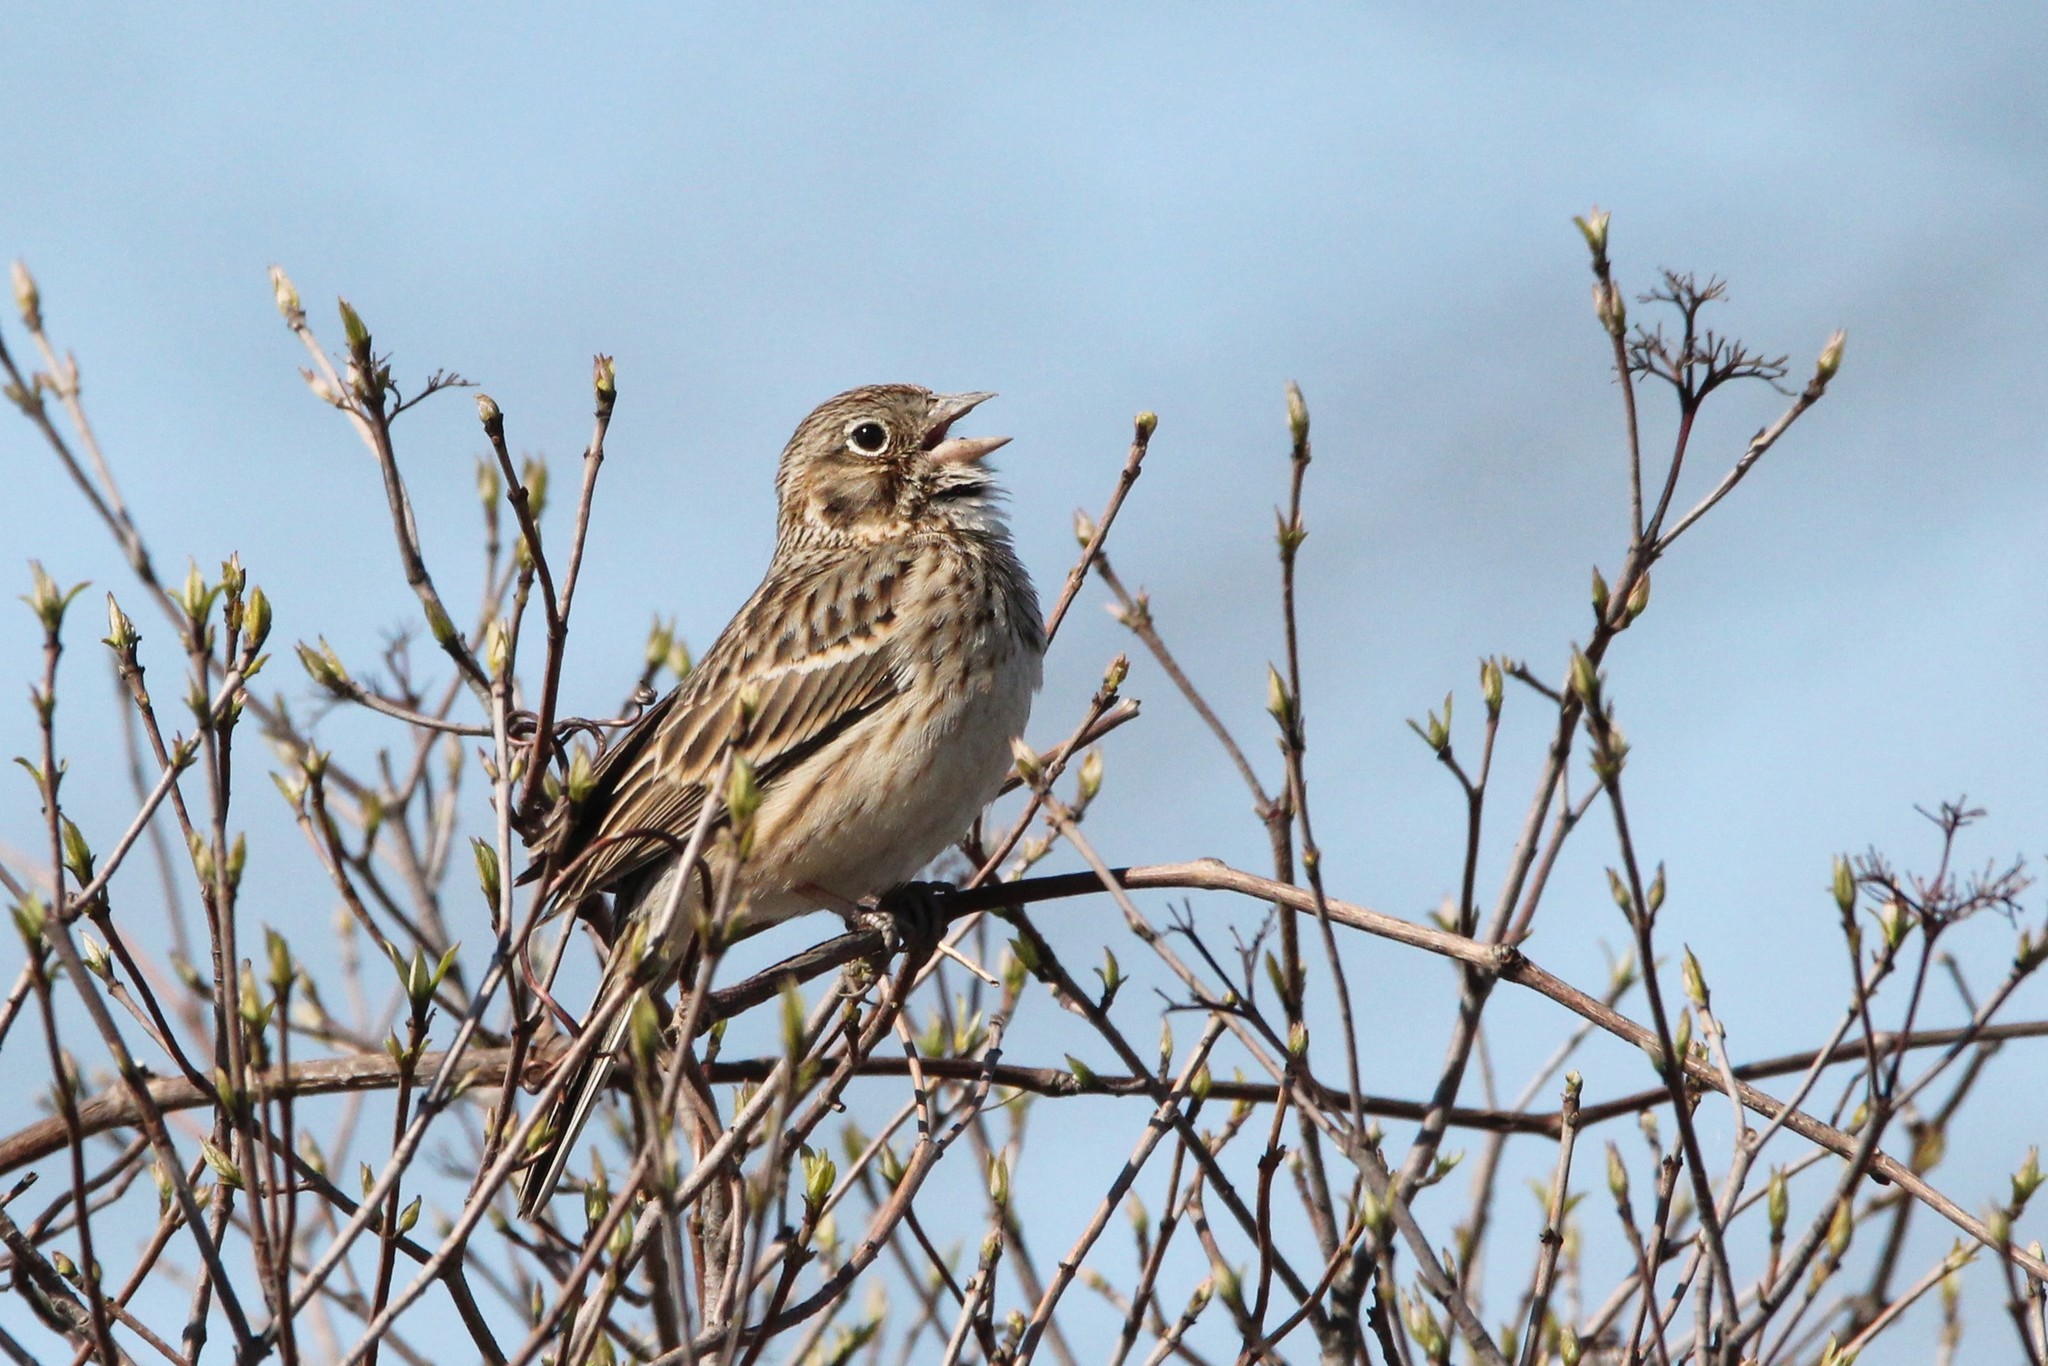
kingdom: Animalia
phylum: Chordata
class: Aves
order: Passeriformes
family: Passerellidae
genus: Pooecetes
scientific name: Pooecetes gramineus
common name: Vesper sparrow
